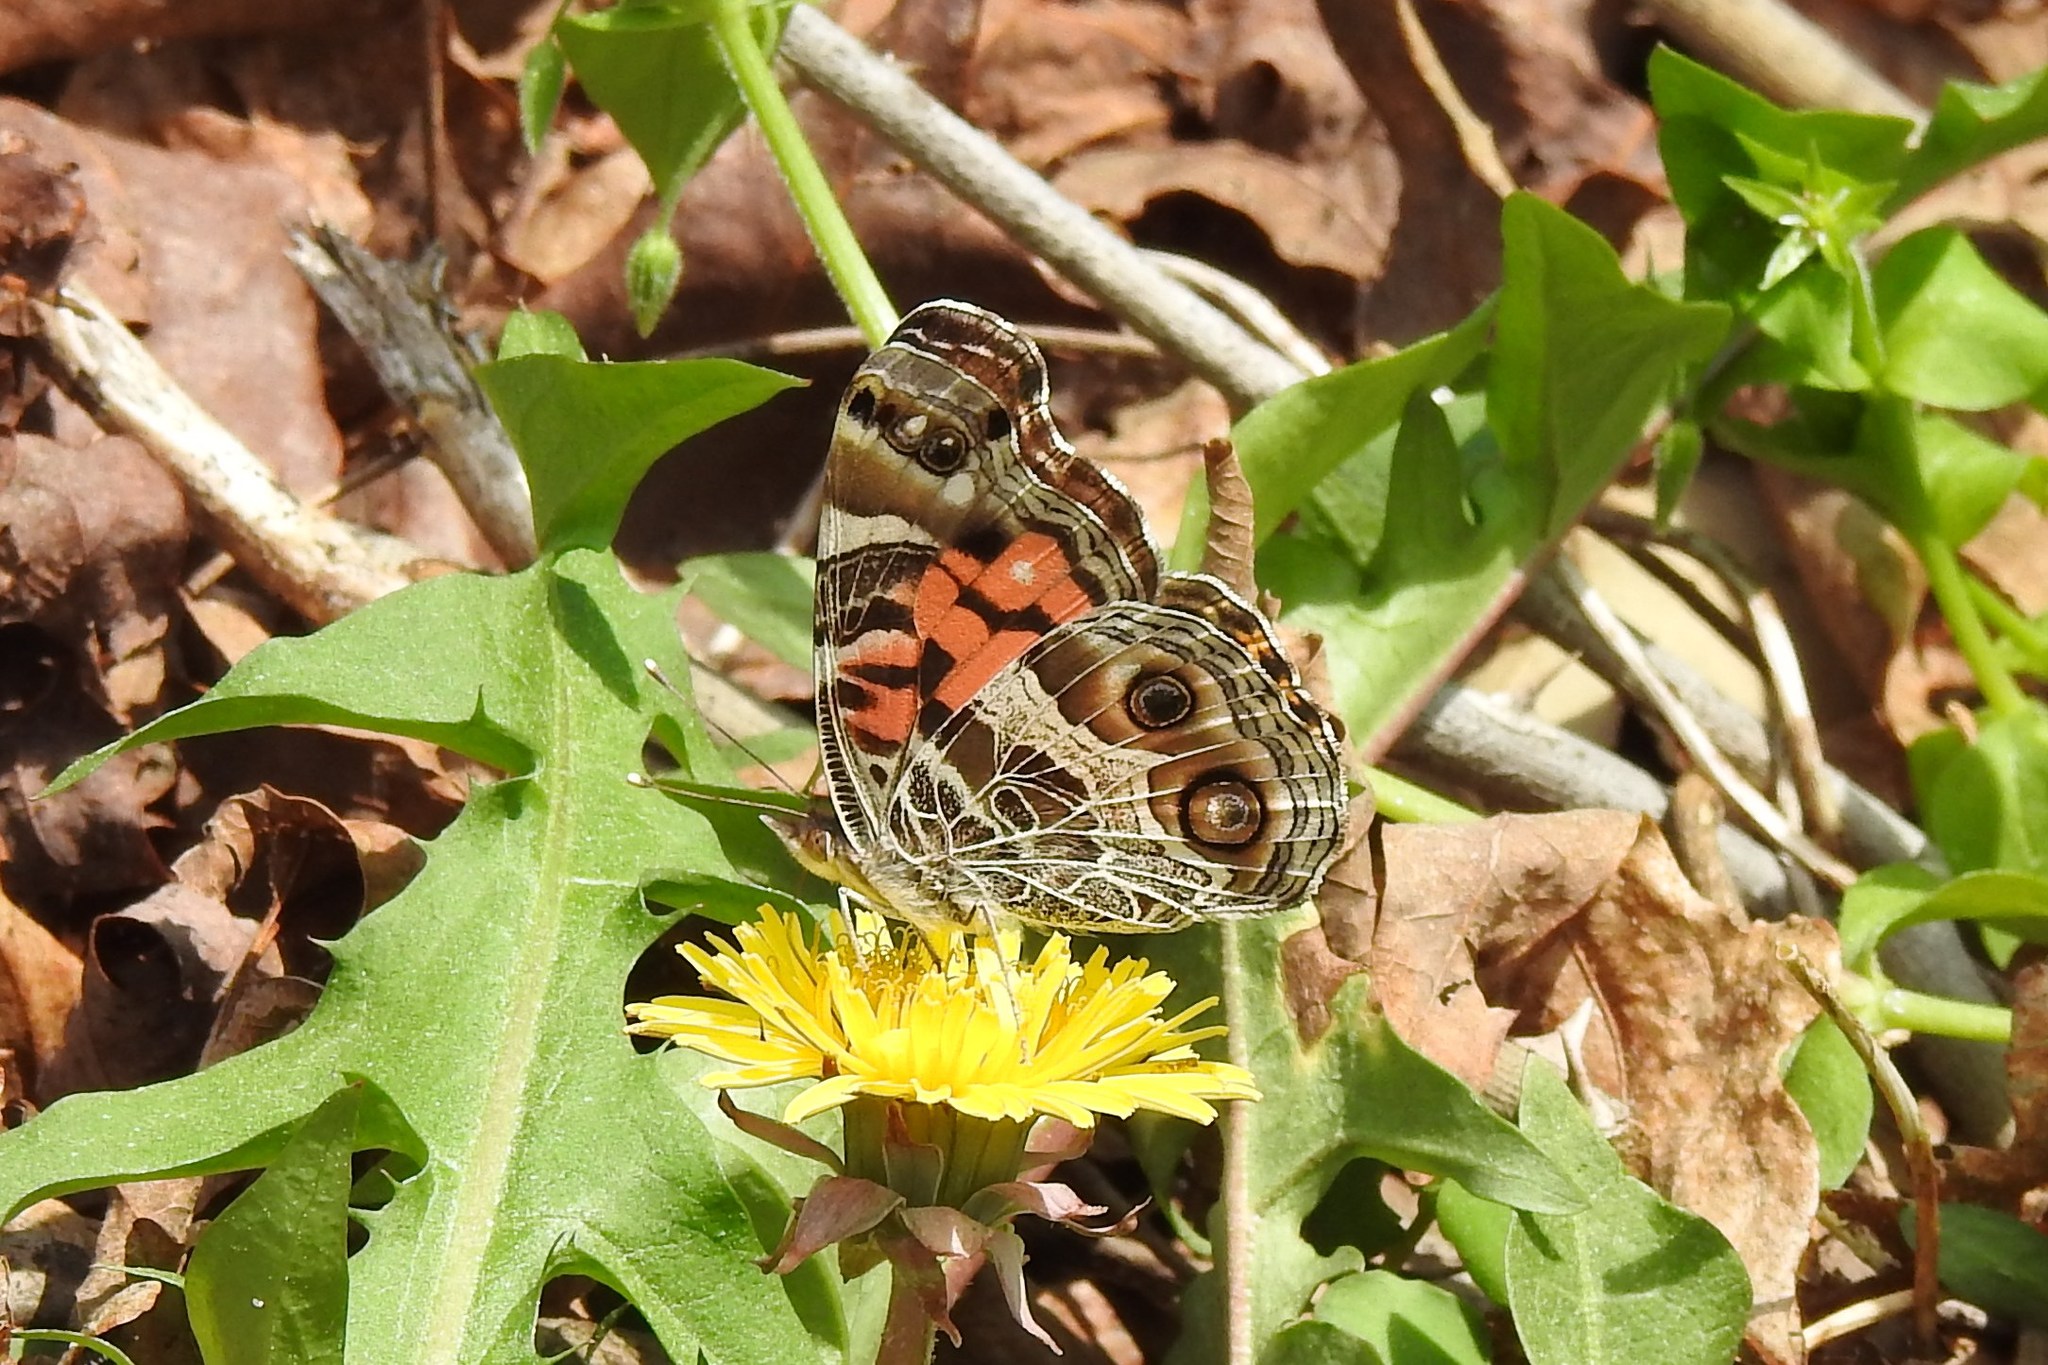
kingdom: Animalia
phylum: Arthropoda
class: Insecta
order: Lepidoptera
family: Nymphalidae
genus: Vanessa
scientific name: Vanessa virginiensis
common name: American lady
